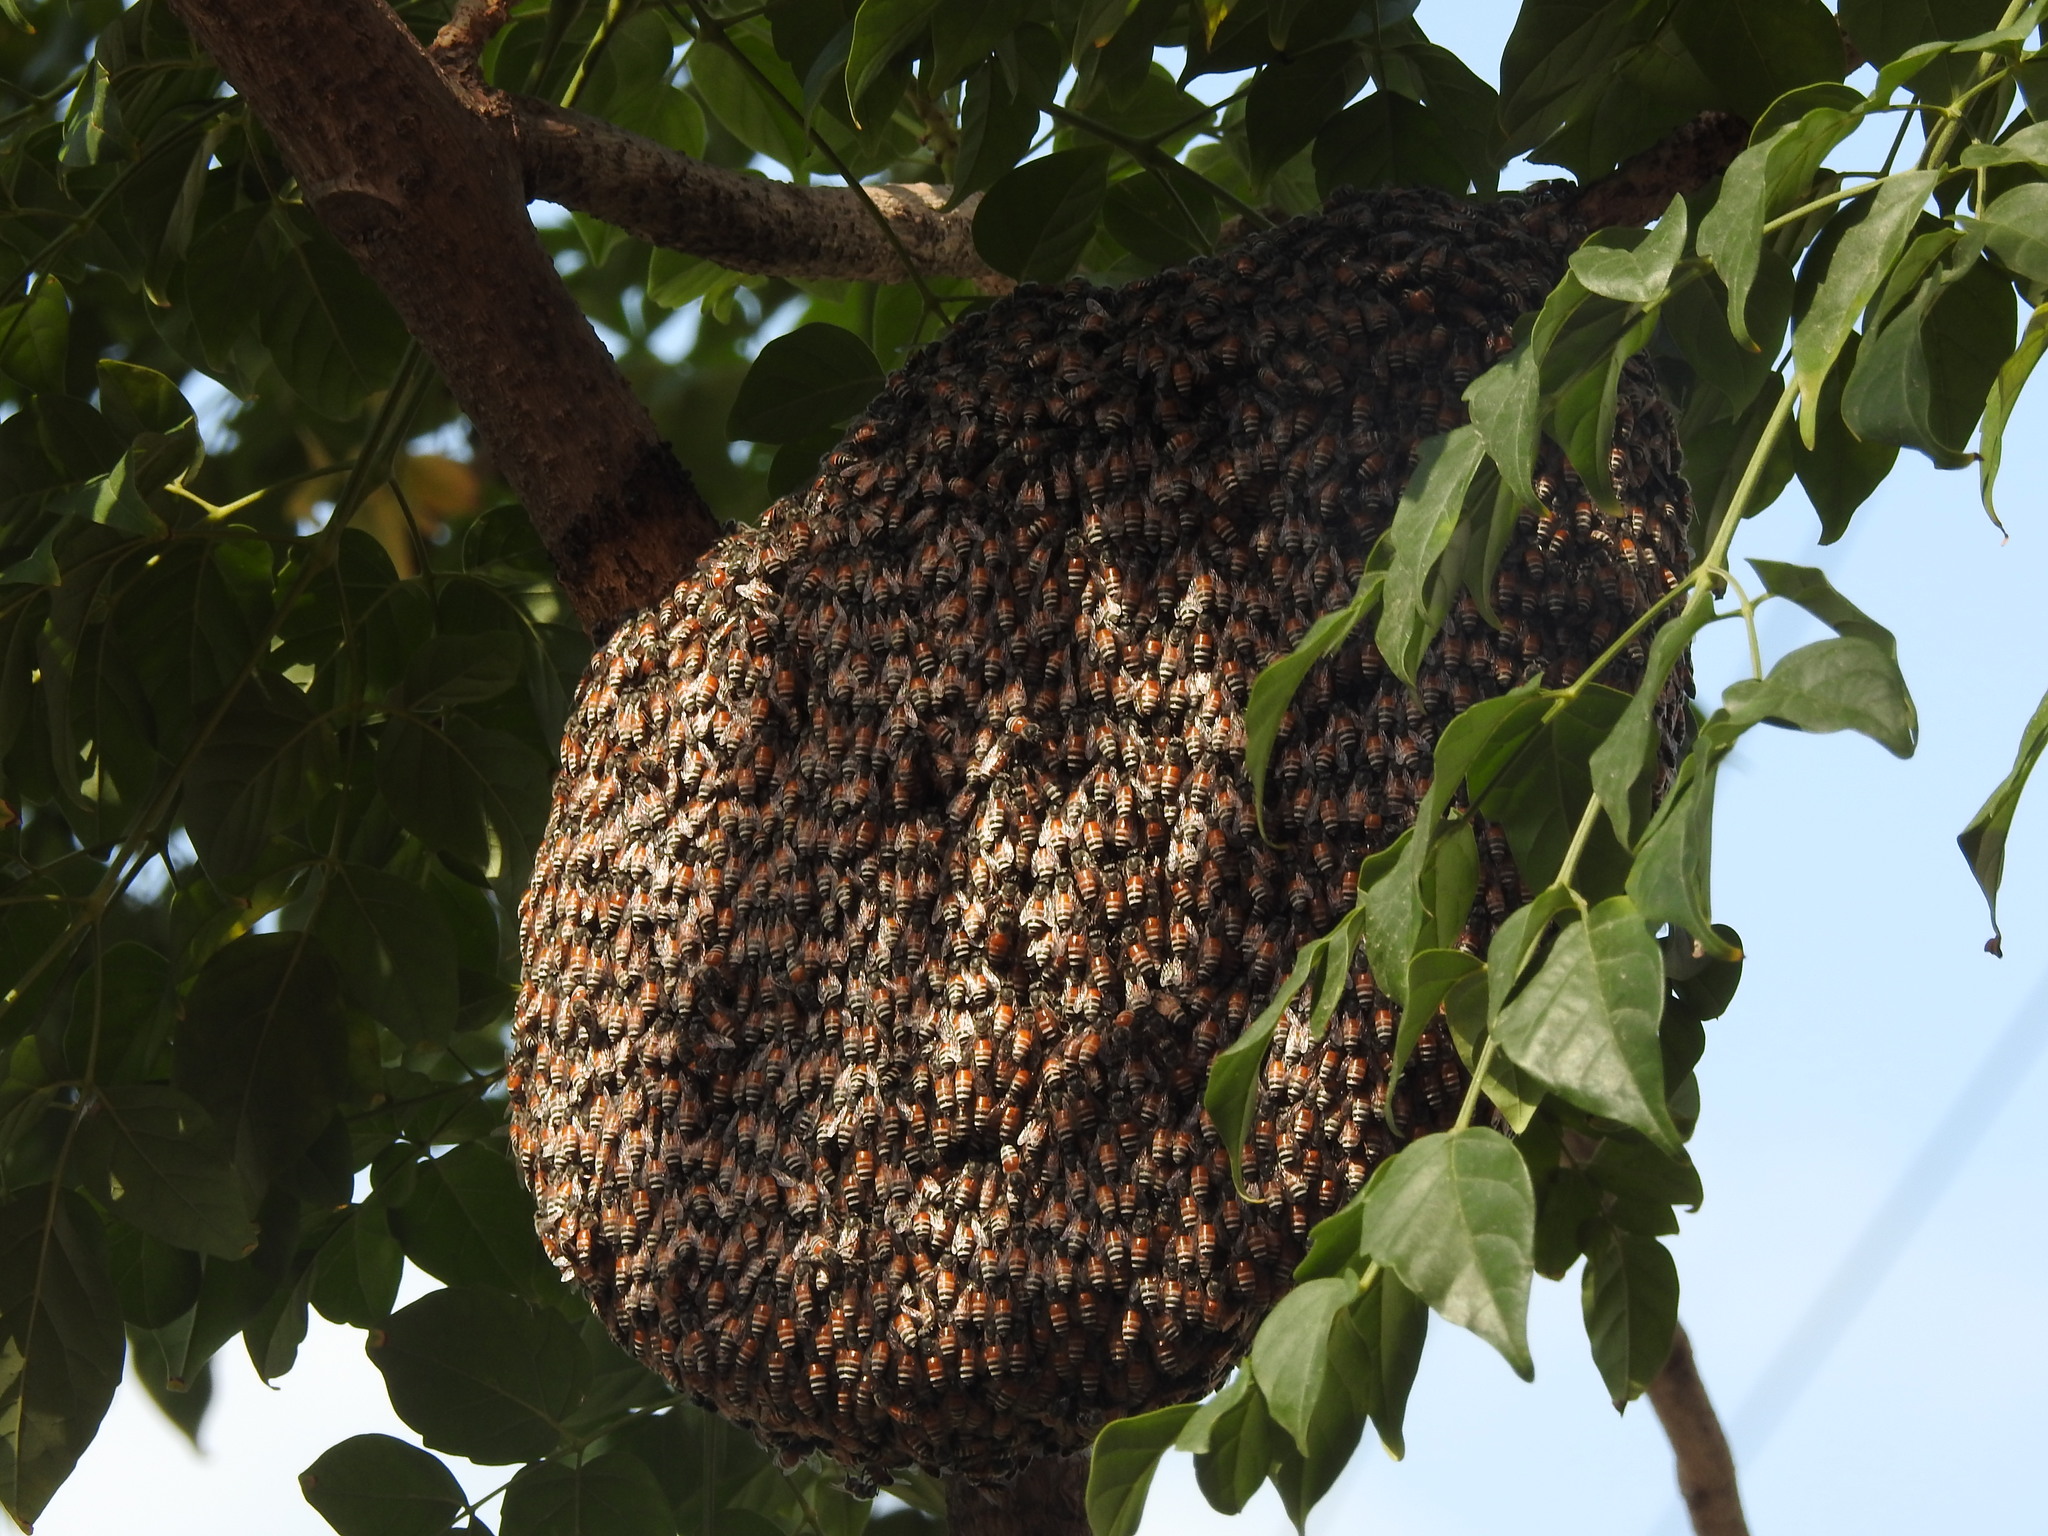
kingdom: Animalia
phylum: Arthropoda
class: Insecta
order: Hymenoptera
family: Apidae
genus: Apis
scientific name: Apis florea
